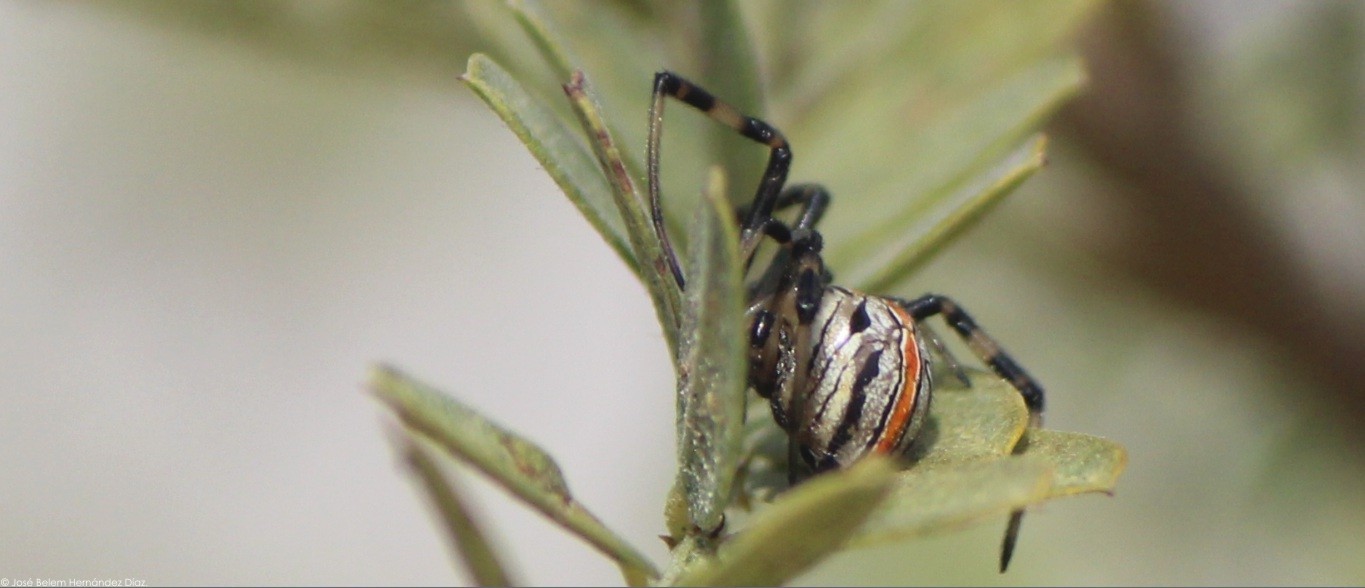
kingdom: Animalia
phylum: Arthropoda
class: Arachnida
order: Araneae
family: Theridiidae
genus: Latrodectus
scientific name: Latrodectus geometricus
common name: Brown widow spider
